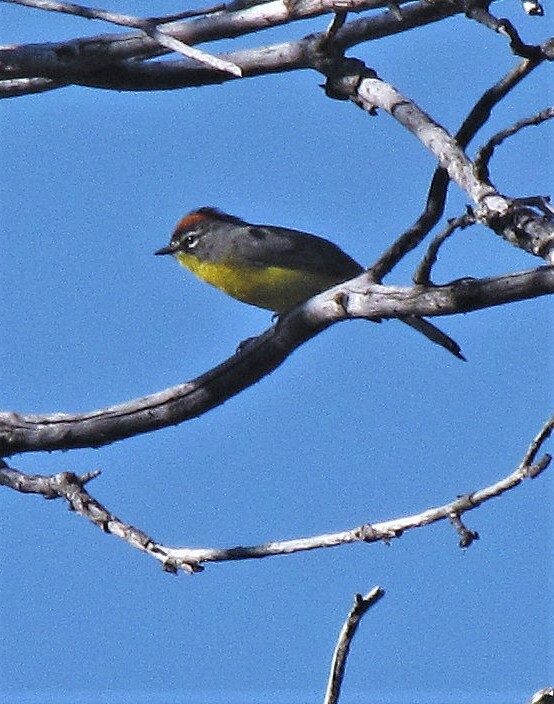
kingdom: Animalia
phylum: Chordata
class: Aves
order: Passeriformes
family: Parulidae
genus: Myioborus
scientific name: Myioborus brunniceps
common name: Brown-capped whitestart
